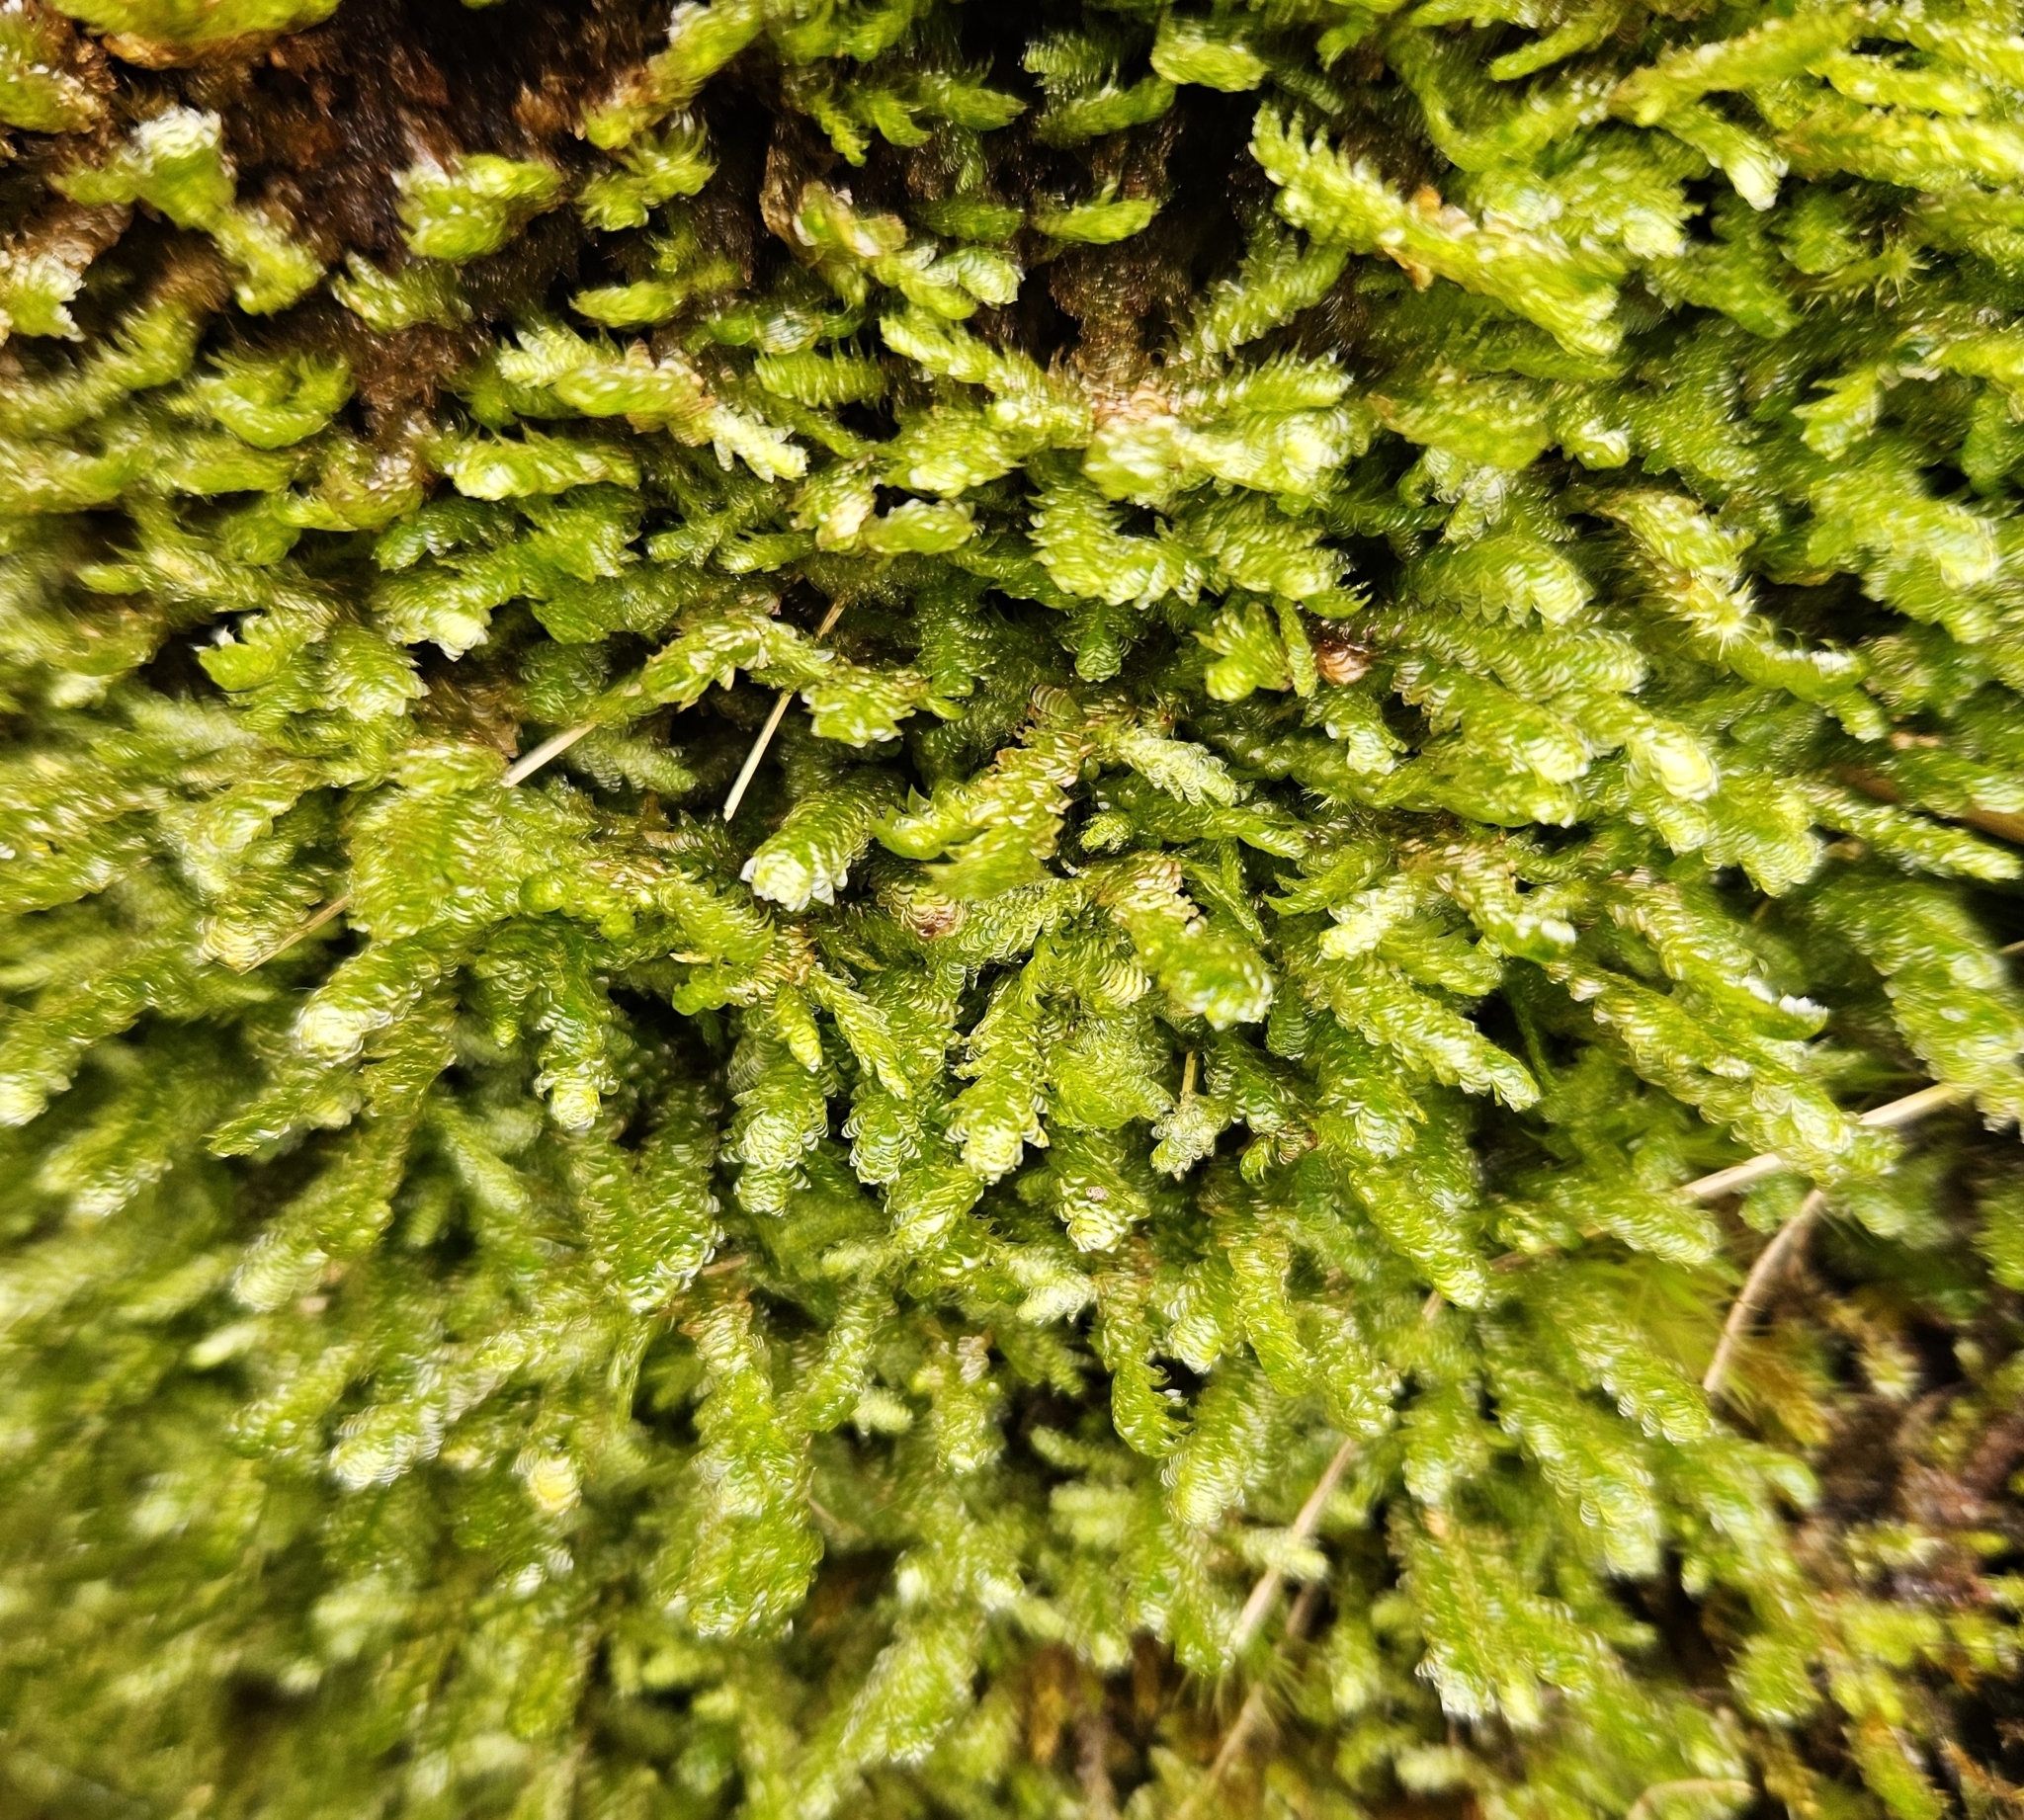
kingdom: Plantae
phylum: Bryophyta
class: Bryopsida
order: Hypnales
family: Neckeraceae
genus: Exsertotheca
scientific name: Exsertotheca crispa
